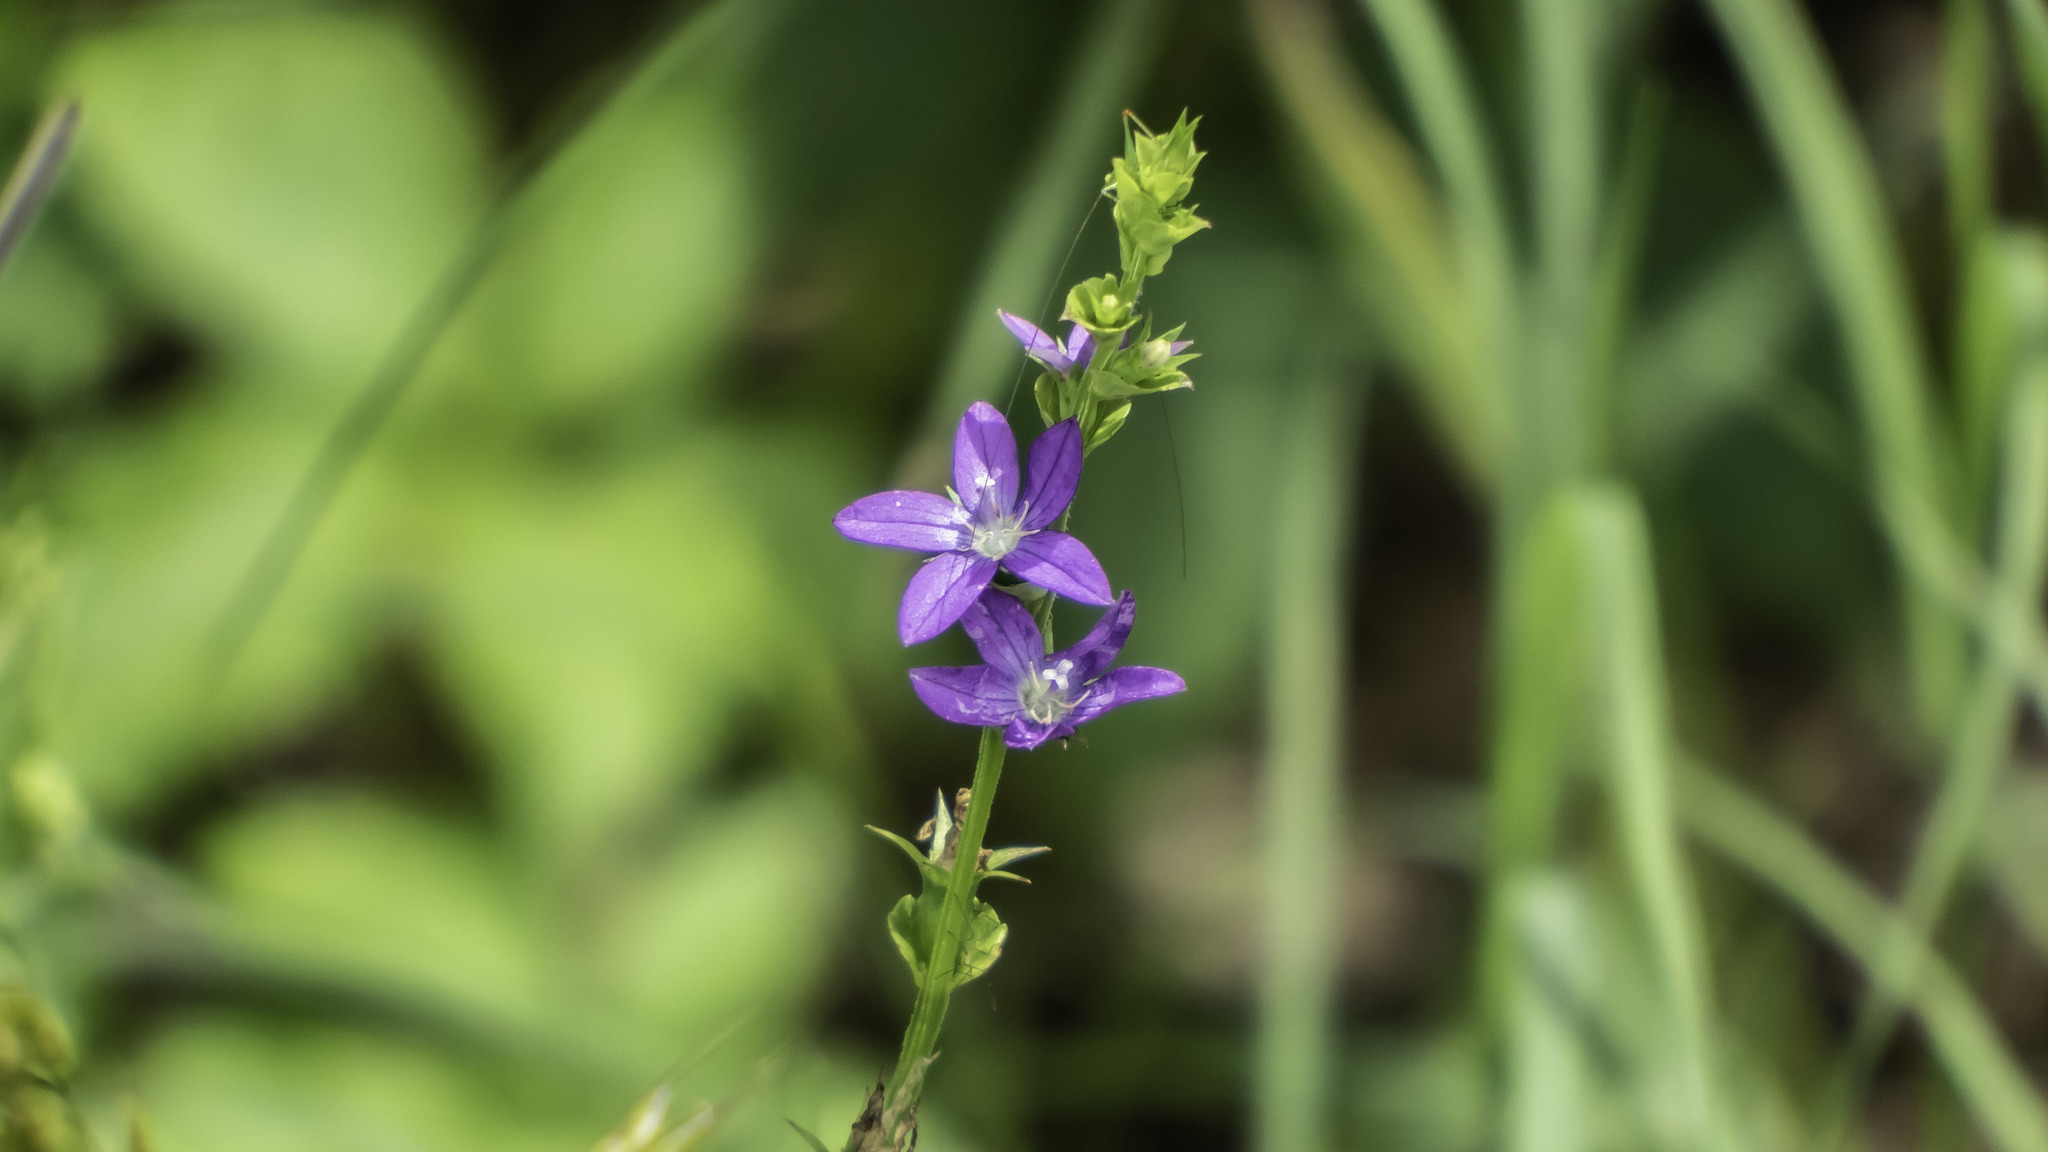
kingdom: Plantae
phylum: Tracheophyta
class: Magnoliopsida
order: Asterales
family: Campanulaceae
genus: Triodanis
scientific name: Triodanis perfoliata
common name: Clasping venus' looking-glass
